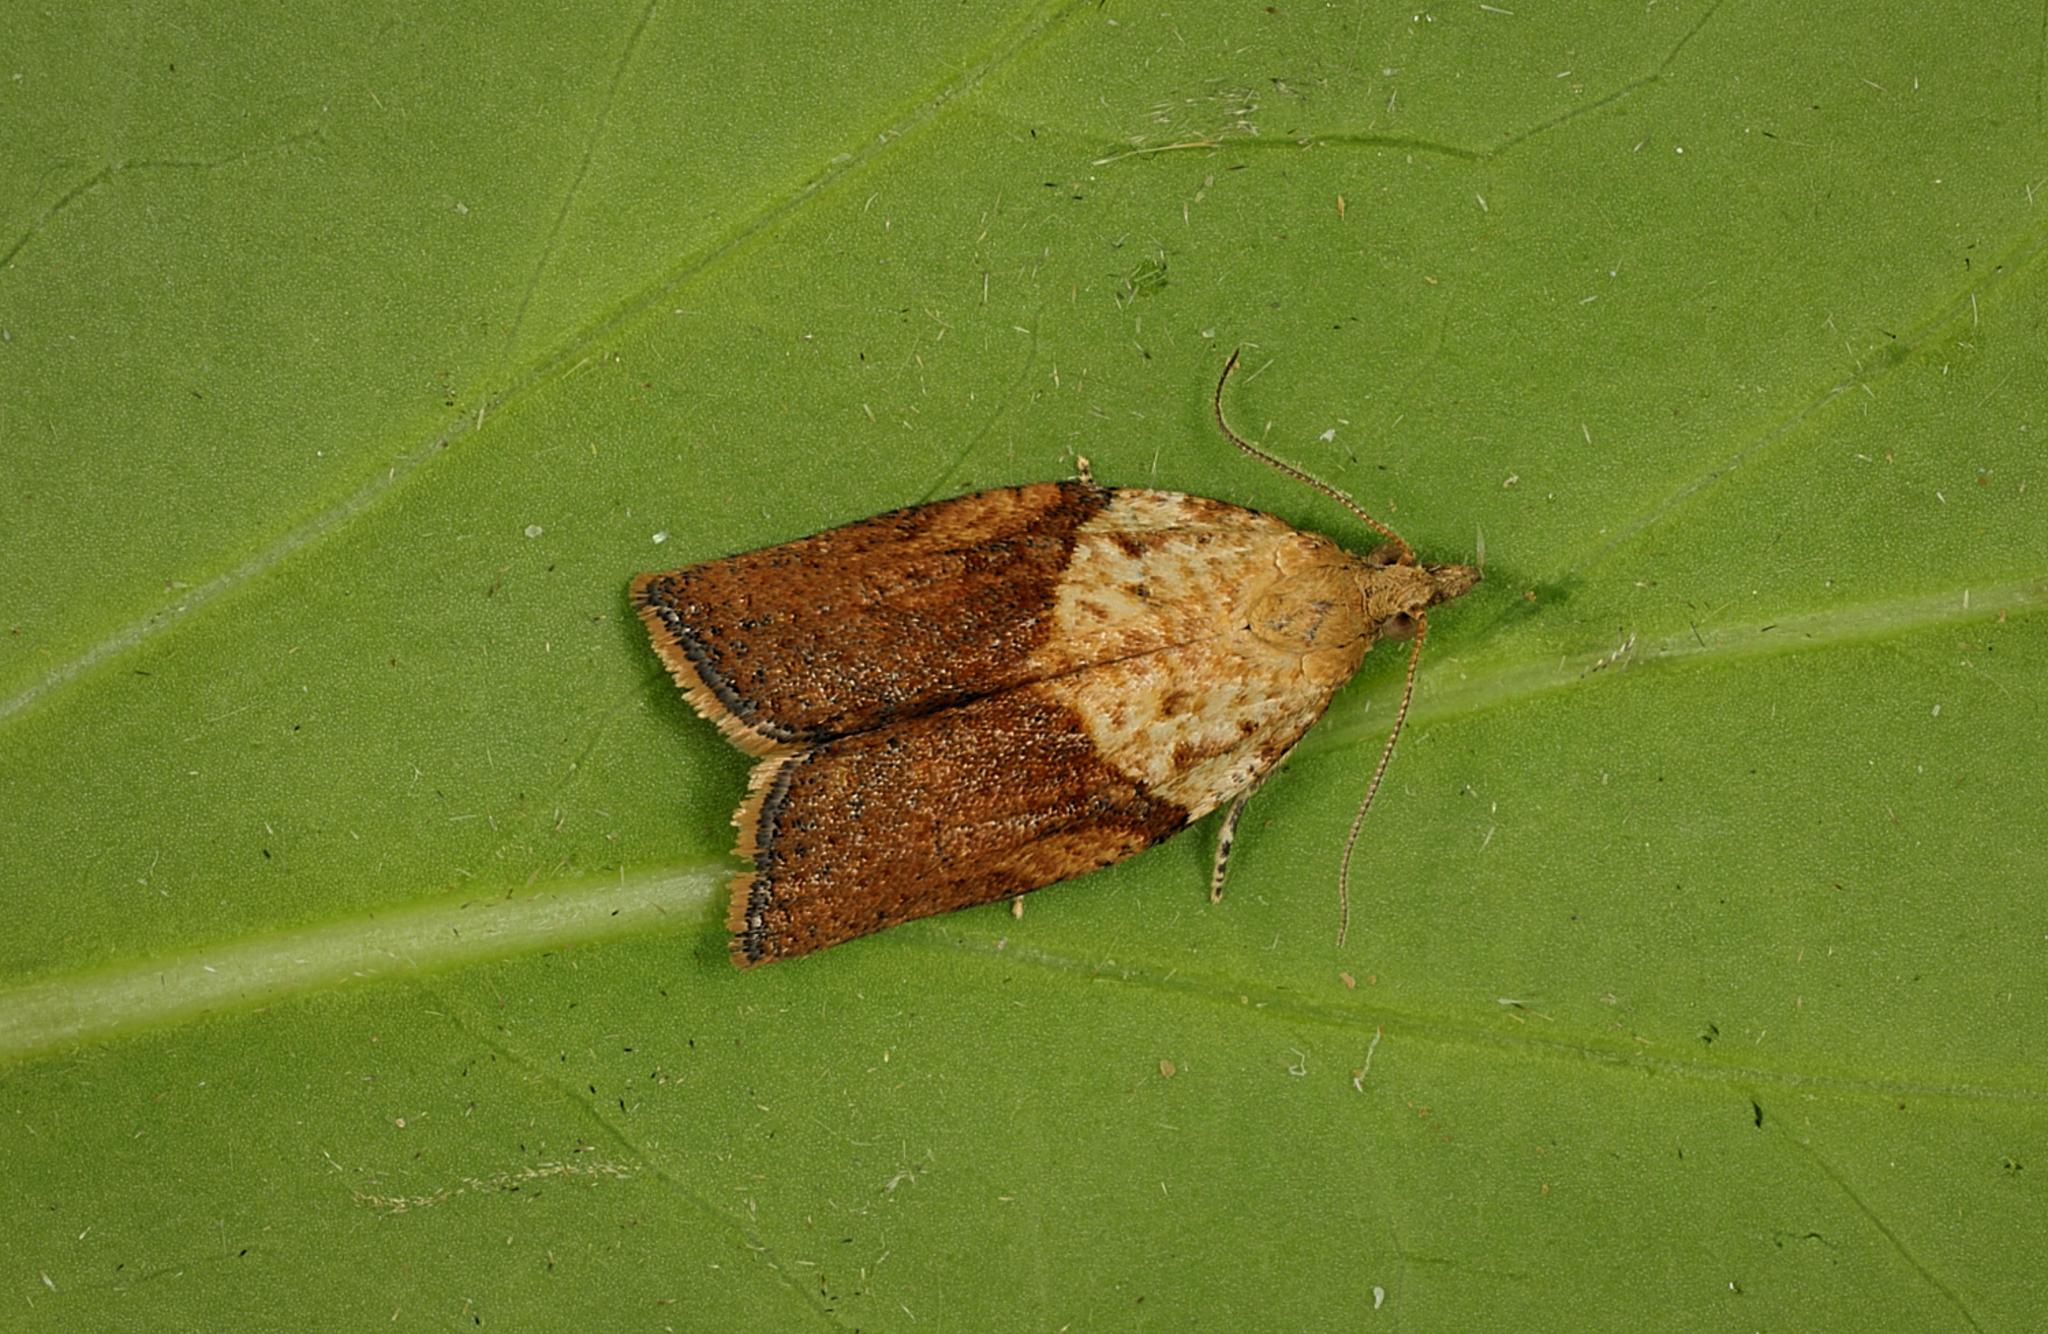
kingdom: Animalia
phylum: Arthropoda
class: Insecta
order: Lepidoptera
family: Tortricidae
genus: Epiphyas
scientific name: Epiphyas postvittana
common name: Light brown apple moth
